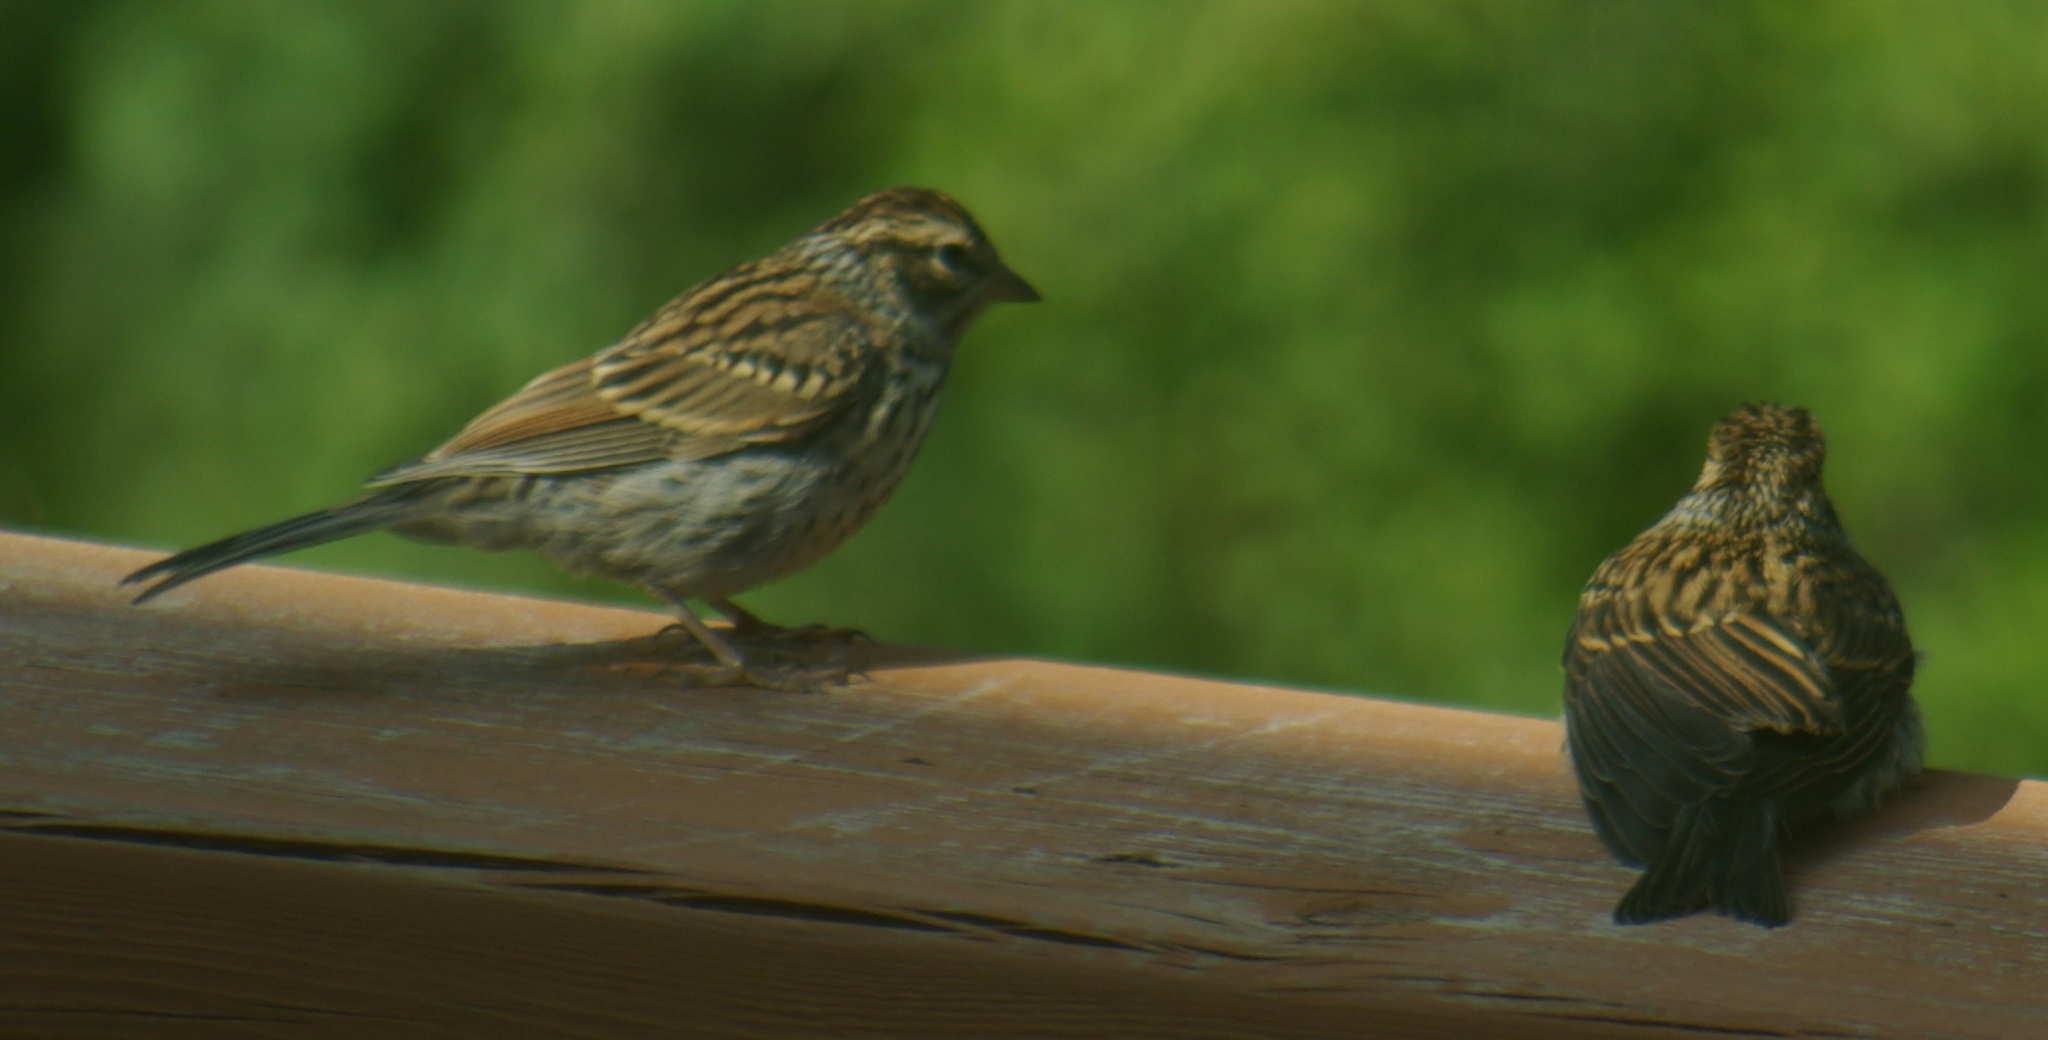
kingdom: Animalia
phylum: Chordata
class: Aves
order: Passeriformes
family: Passerellidae
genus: Spizella
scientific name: Spizella passerina
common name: Chipping sparrow
